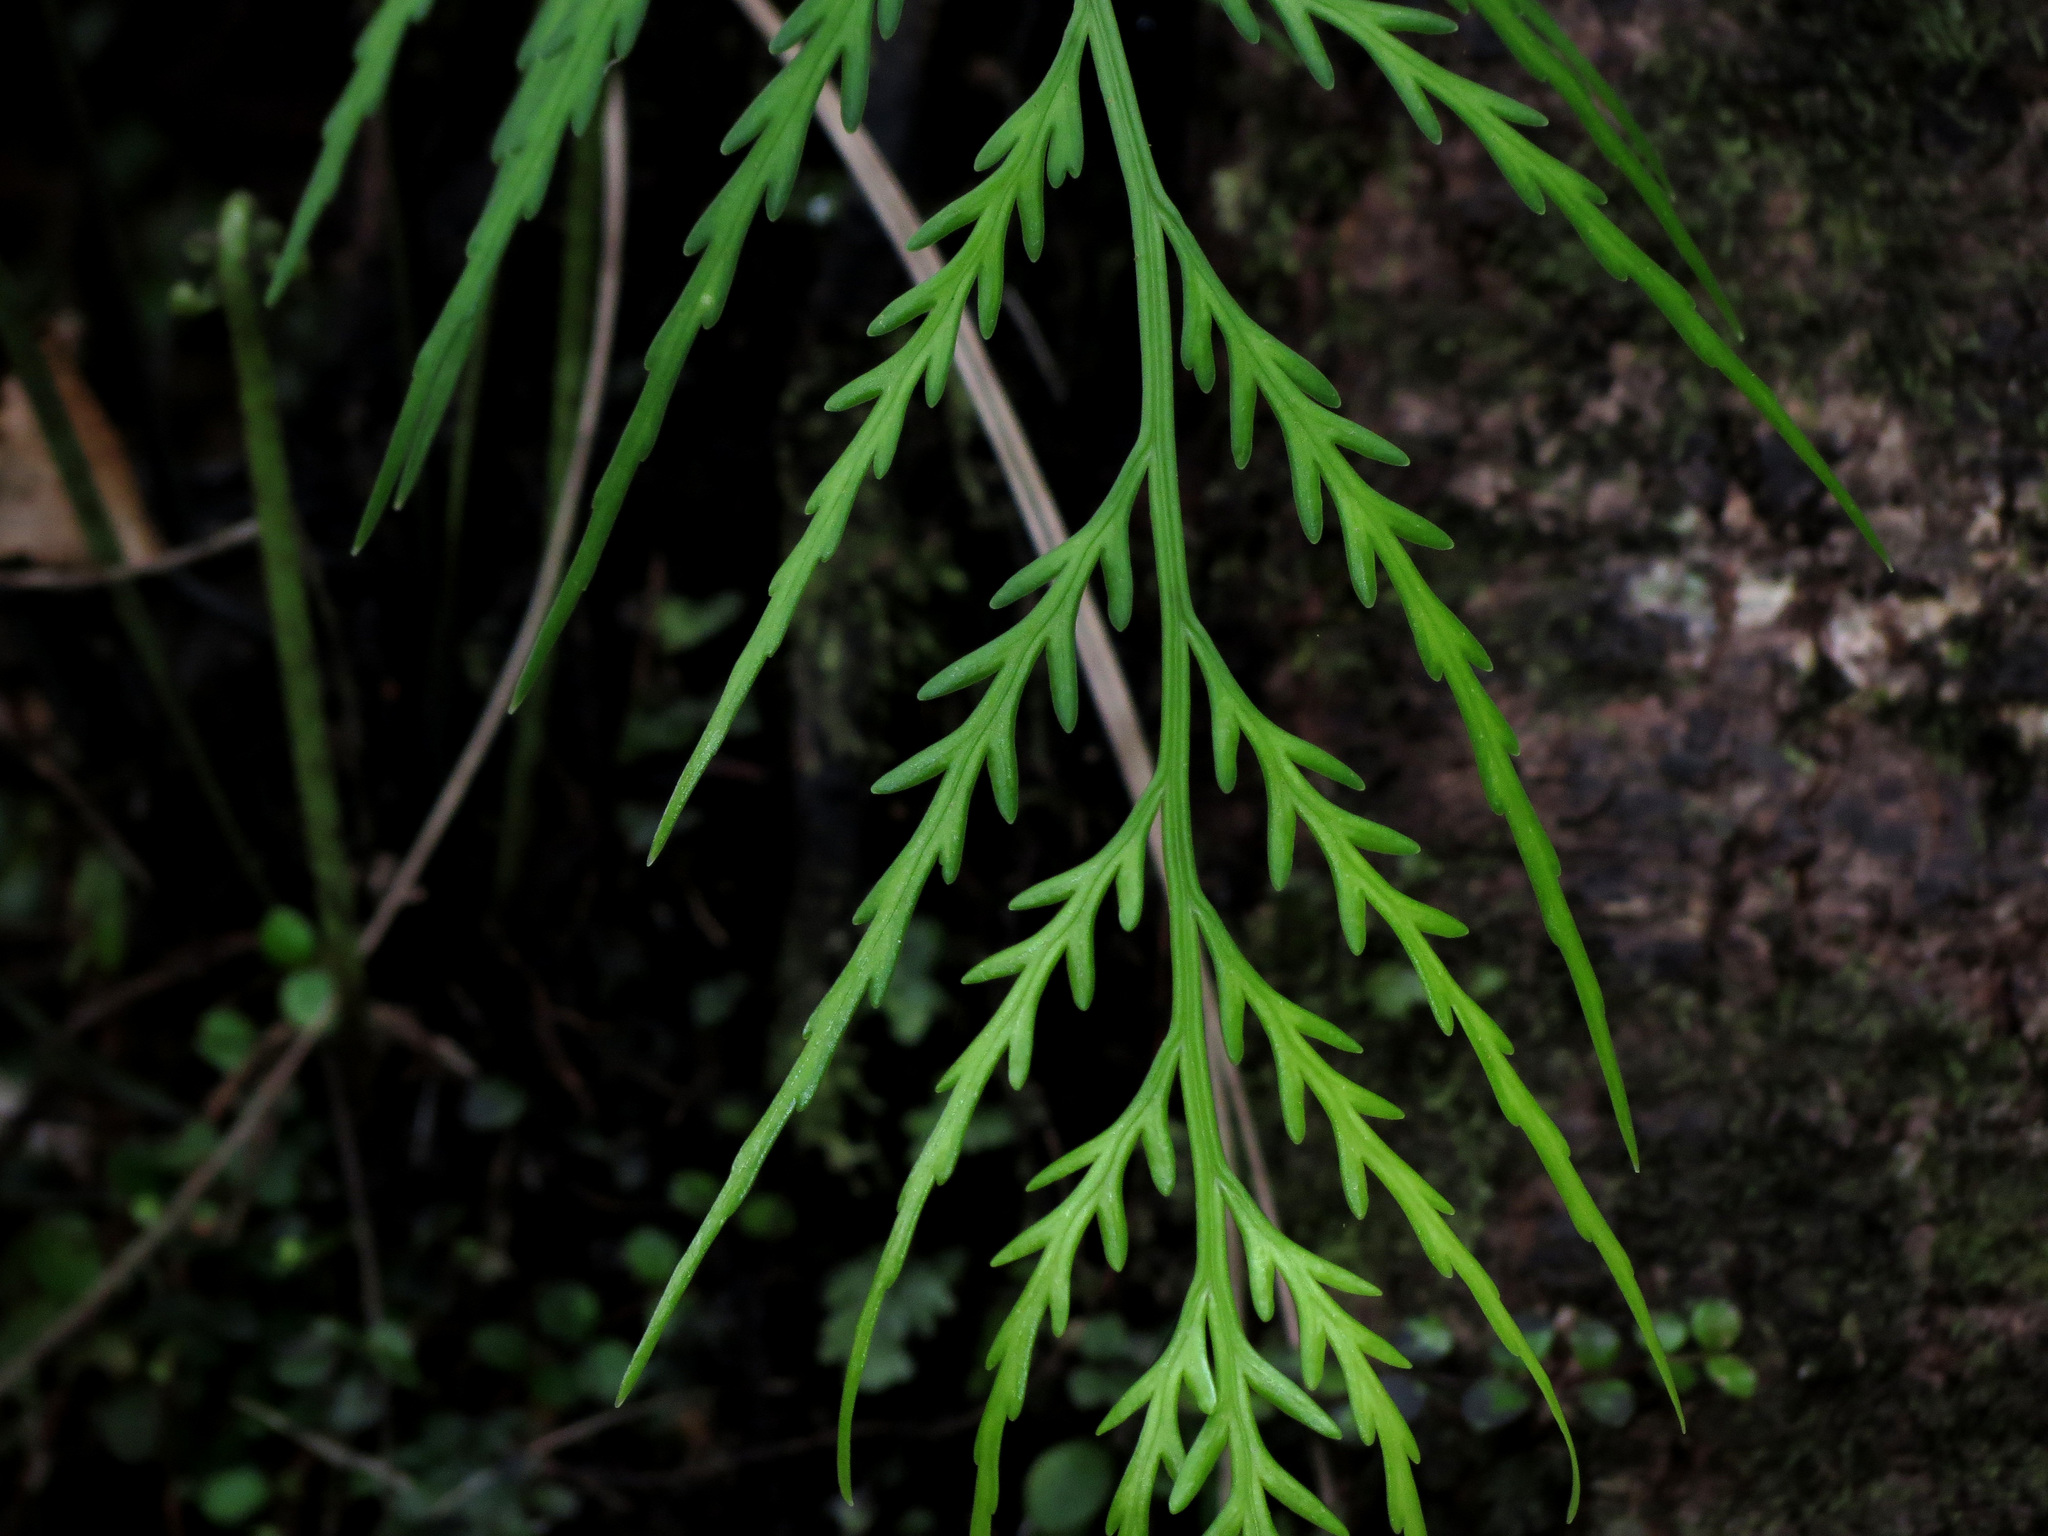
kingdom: Plantae
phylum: Tracheophyta
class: Polypodiopsida
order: Polypodiales
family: Aspleniaceae
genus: Asplenium
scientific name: Asplenium flaccidum
